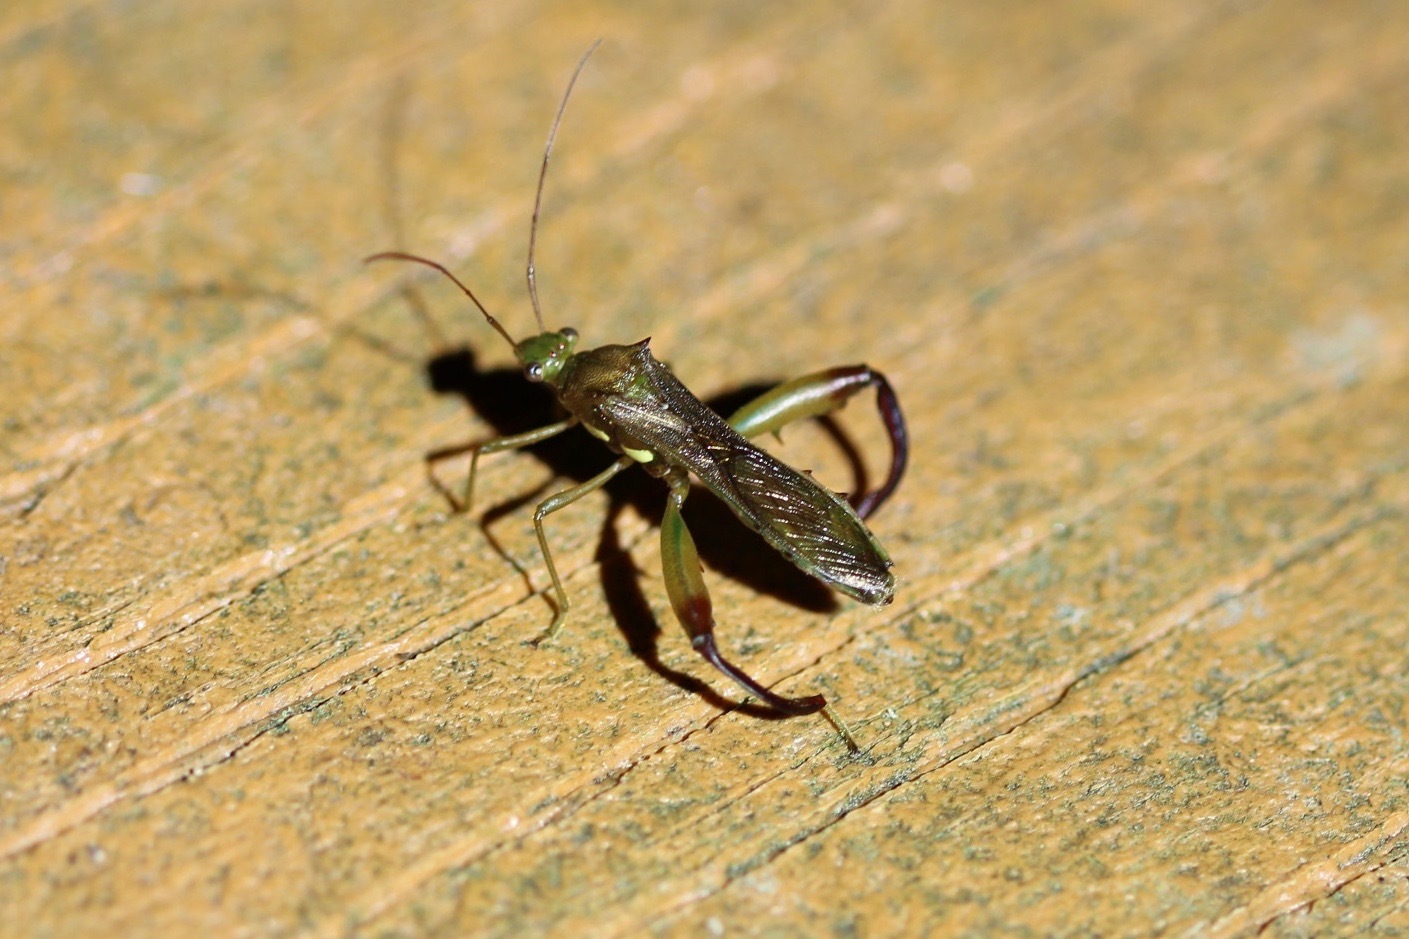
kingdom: Animalia
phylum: Arthropoda
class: Insecta
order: Hemiptera
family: Alydidae
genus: Hyalymenus
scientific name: Hyalymenus tarsatus
